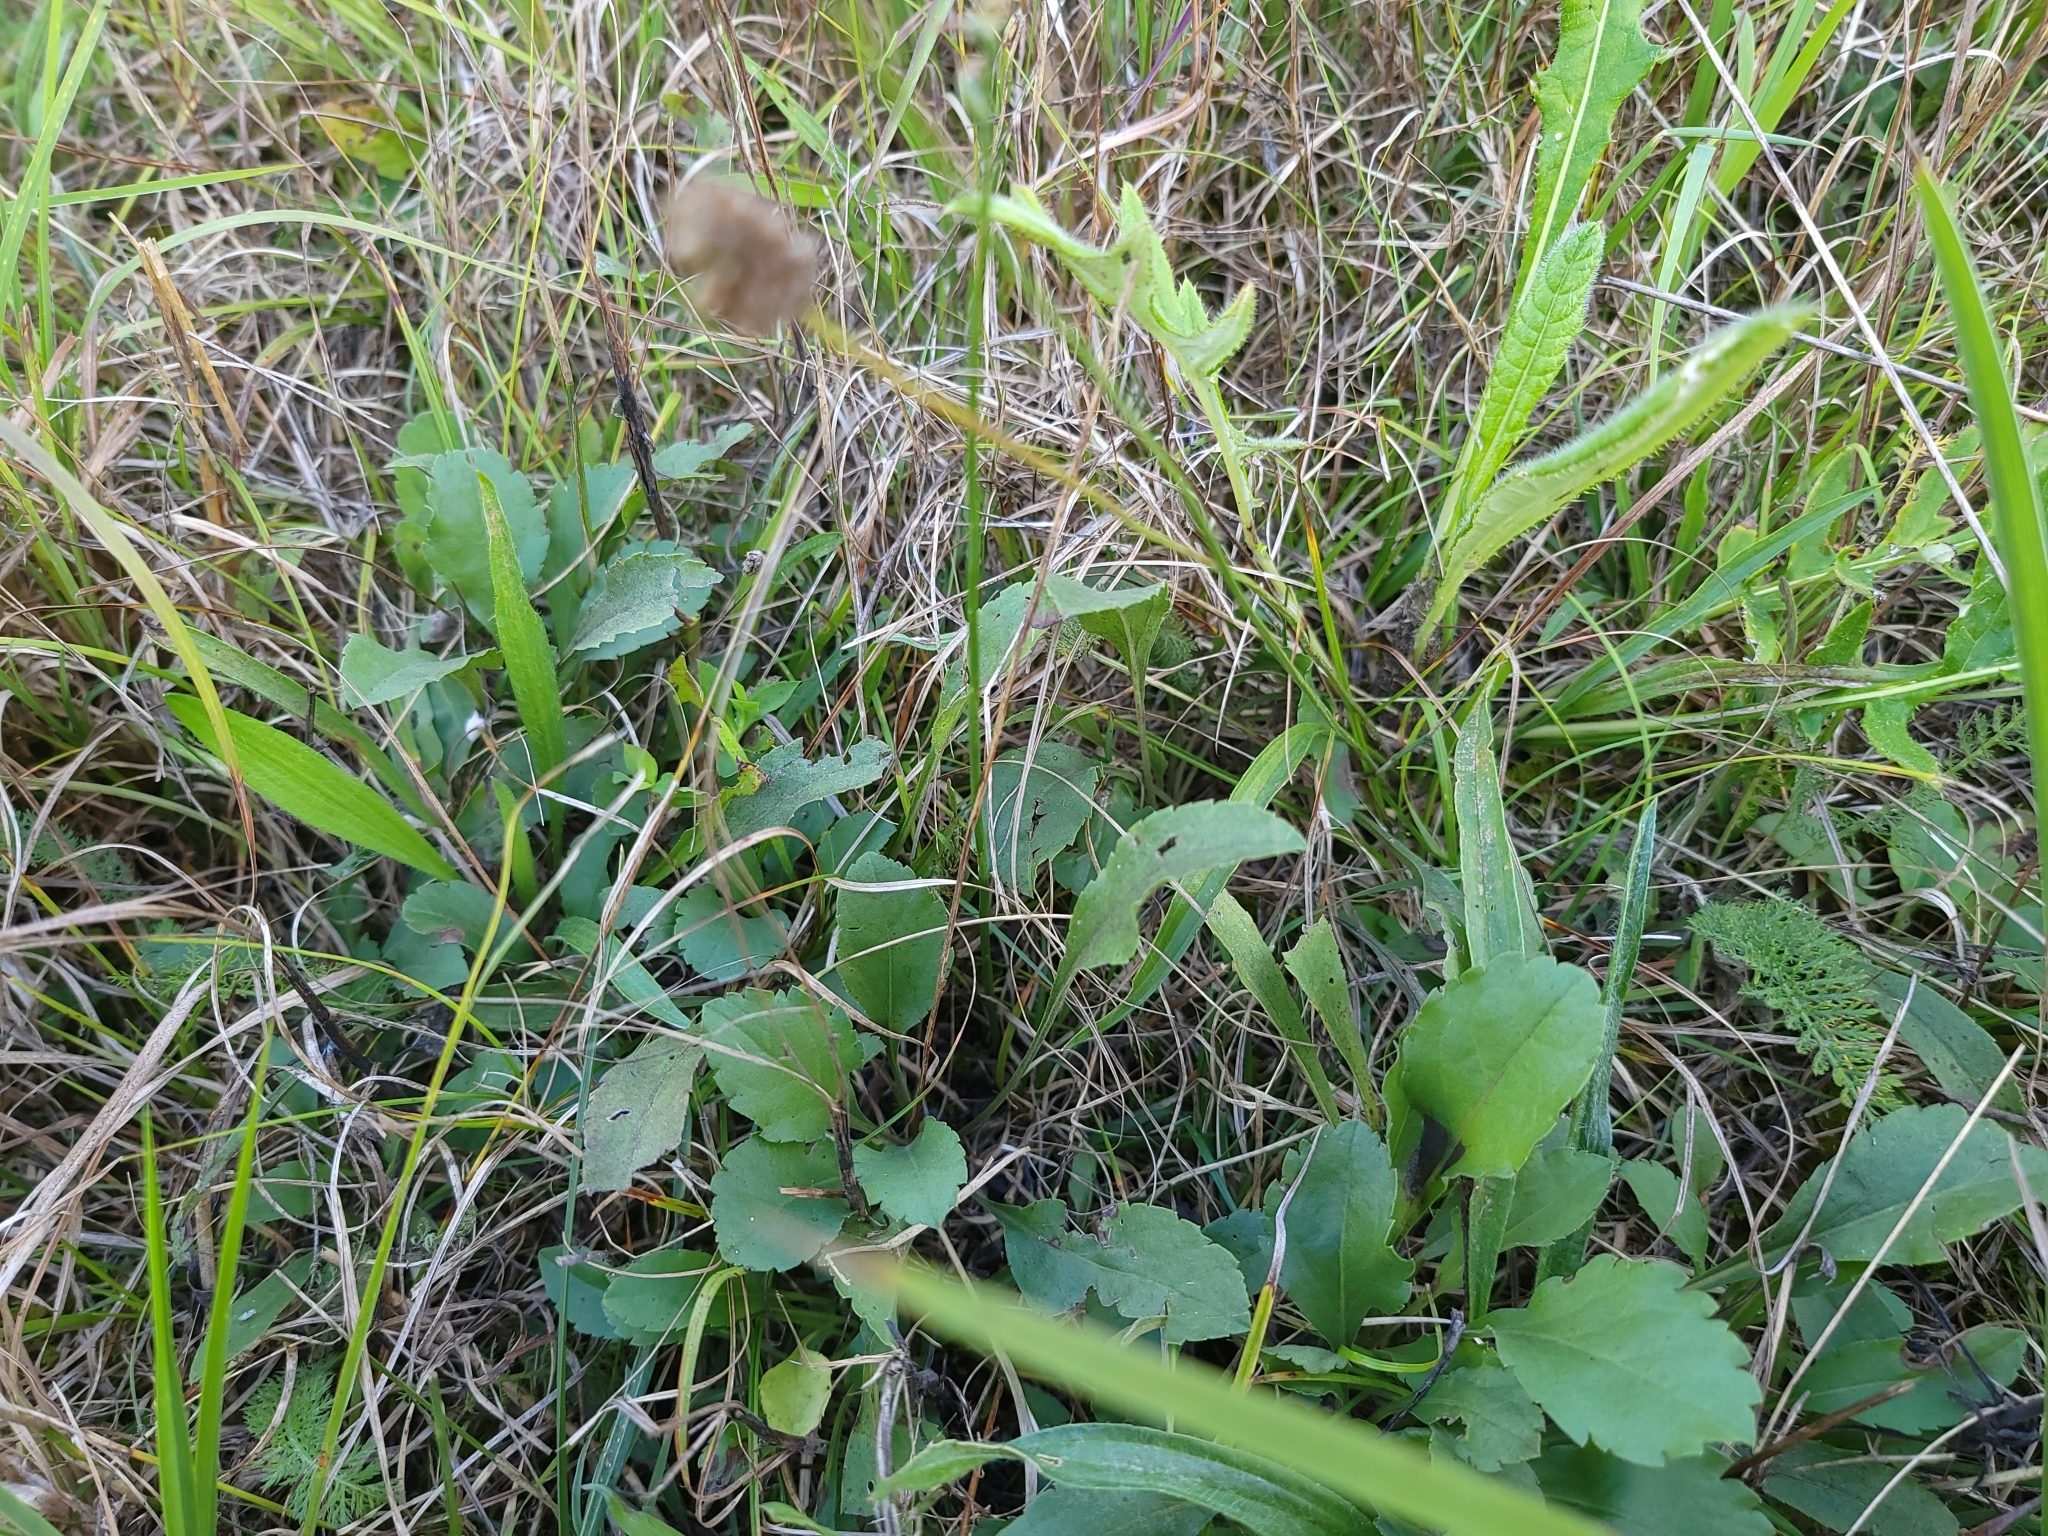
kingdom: Plantae
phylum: Tracheophyta
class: Liliopsida
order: Asparagales
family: Orchidaceae
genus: Spiranthes
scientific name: Spiranthes lacera
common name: Northern slender ladies'-tresses
